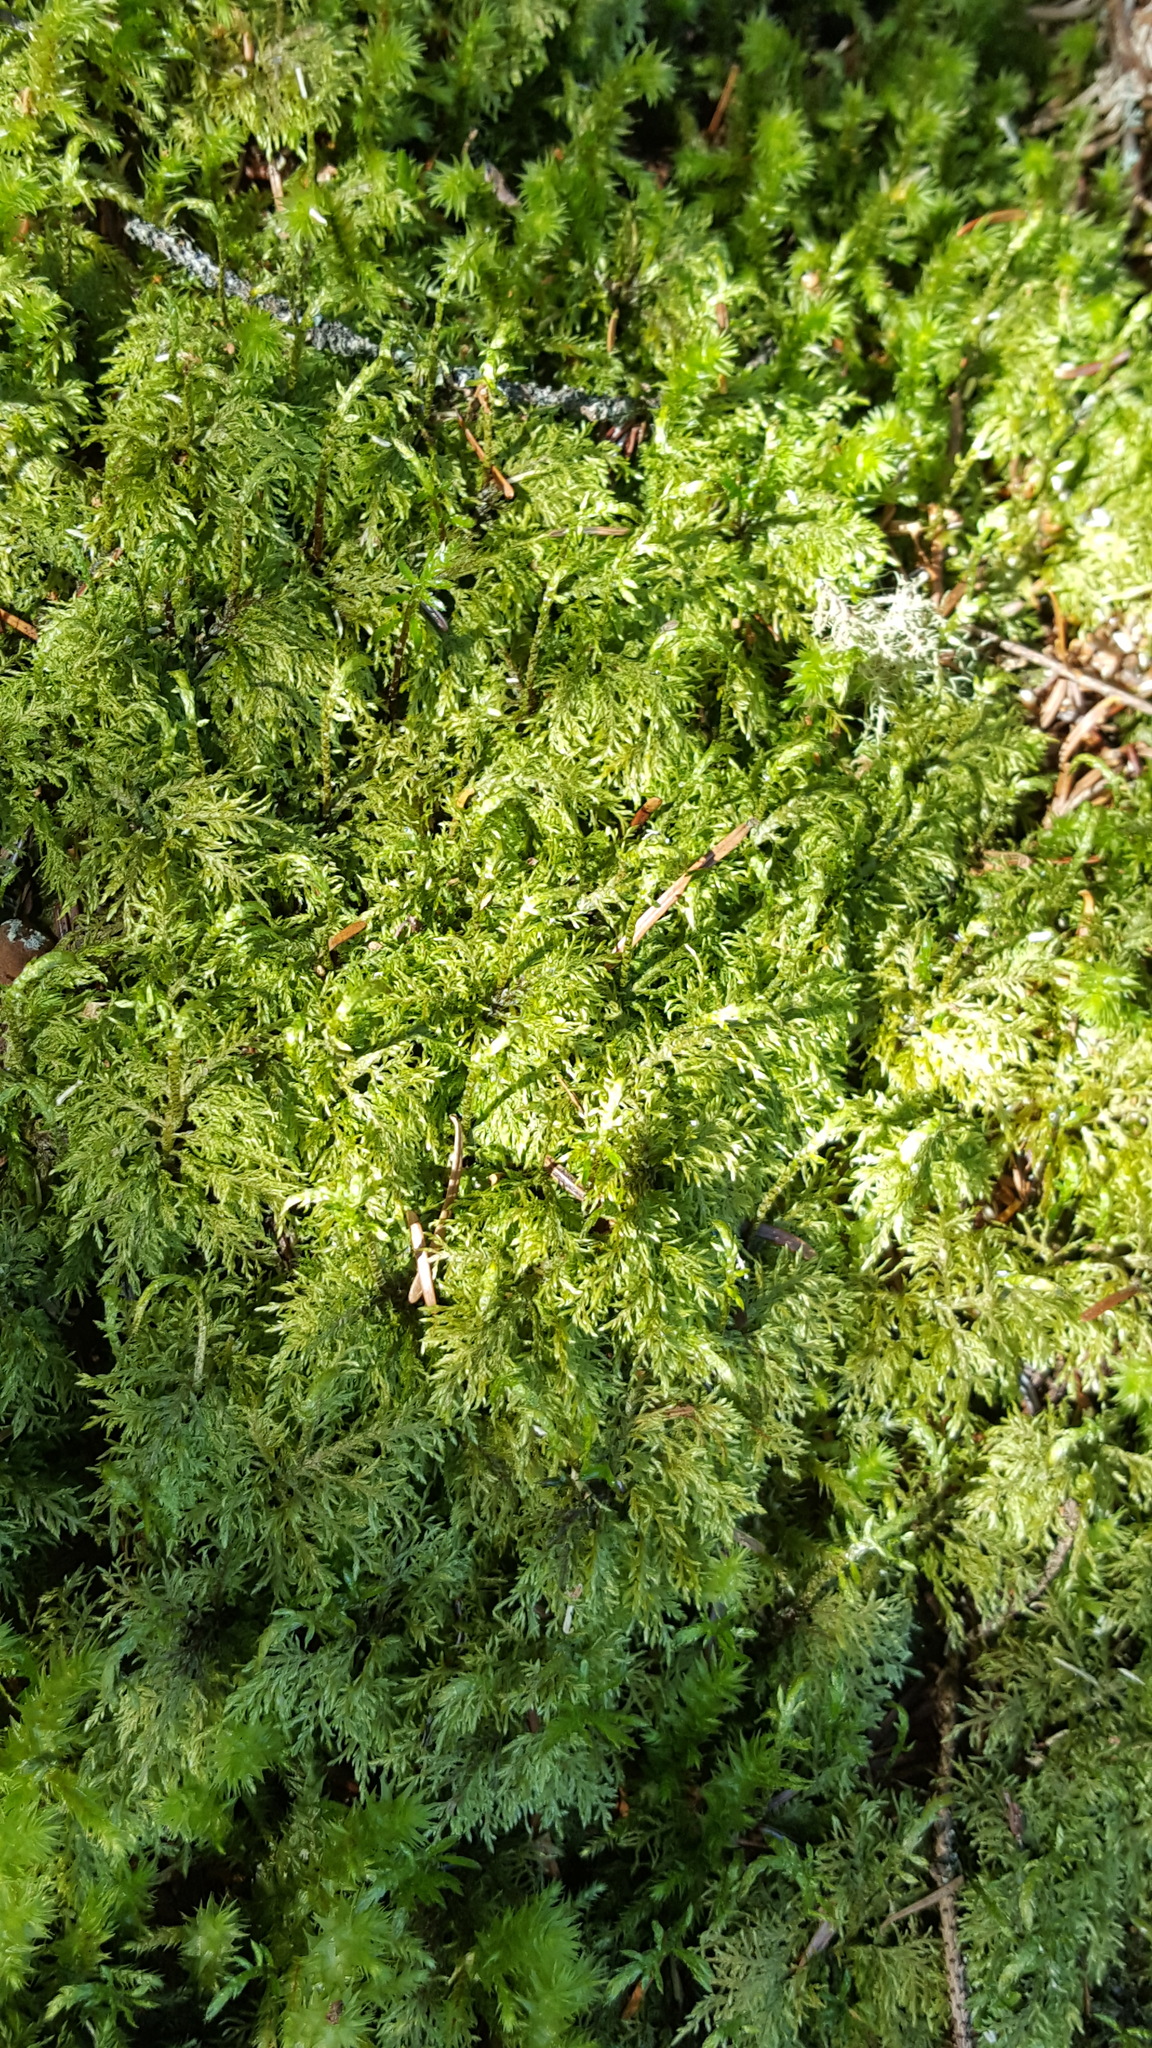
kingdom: Plantae
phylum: Bryophyta
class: Bryopsida
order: Hypnales
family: Hylocomiaceae
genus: Hylocomium
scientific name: Hylocomium splendens
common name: Stairstep moss
